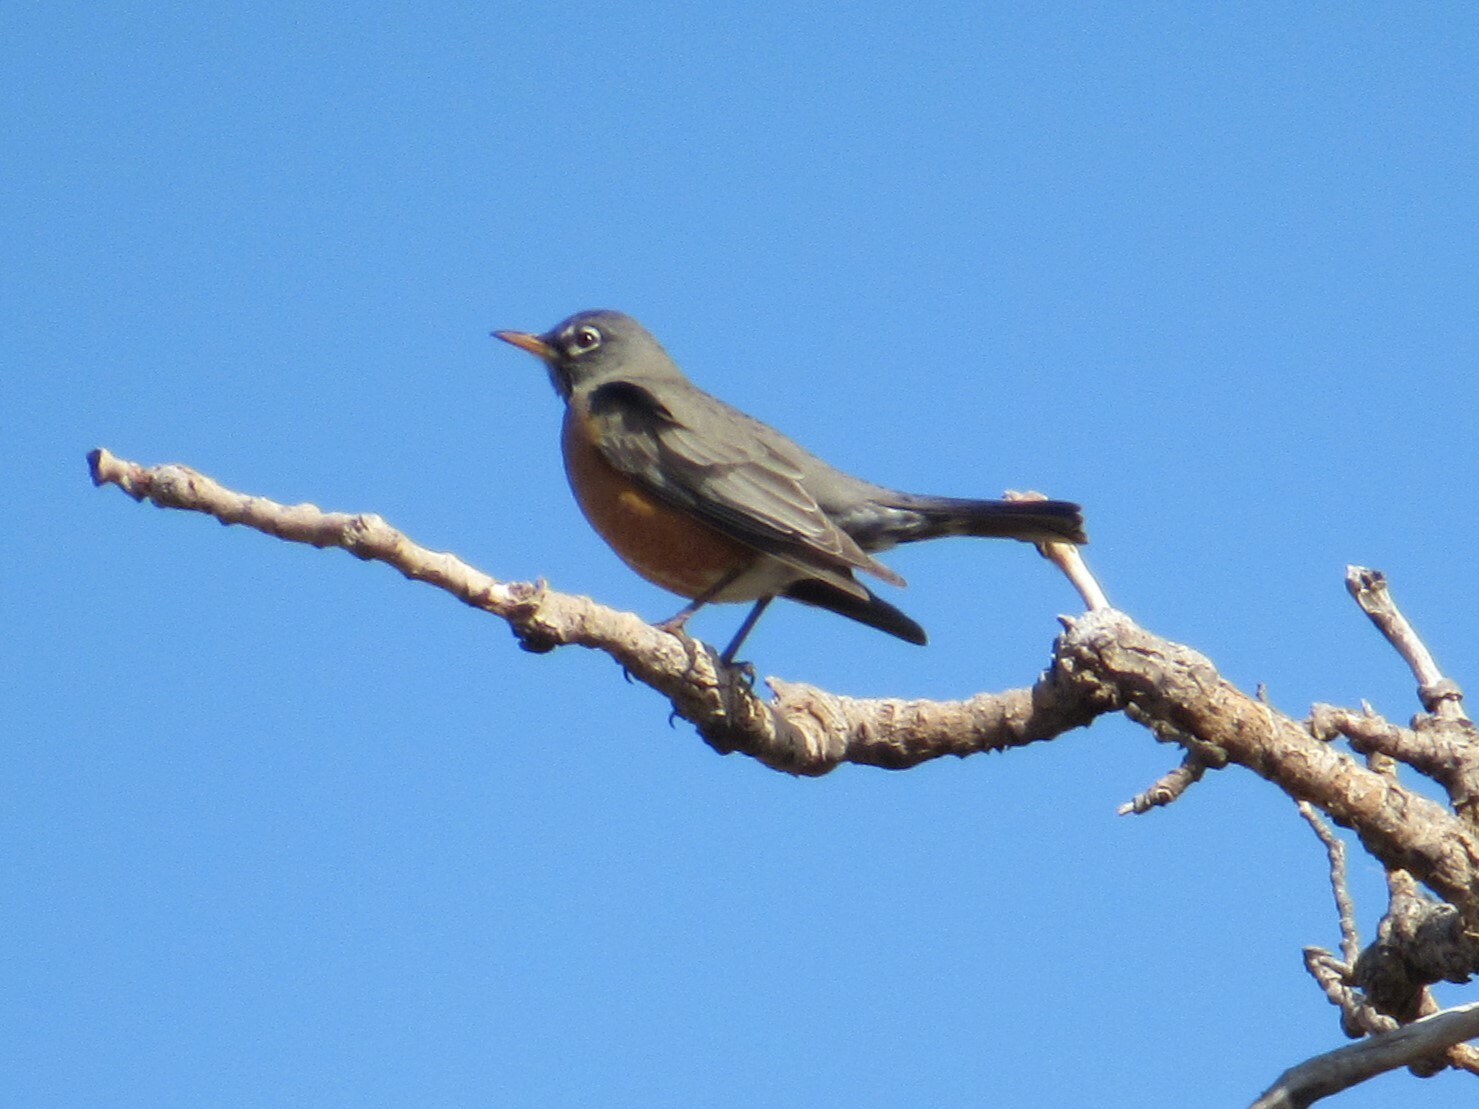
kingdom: Animalia
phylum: Chordata
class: Aves
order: Passeriformes
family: Turdidae
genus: Turdus
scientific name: Turdus migratorius
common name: American robin
